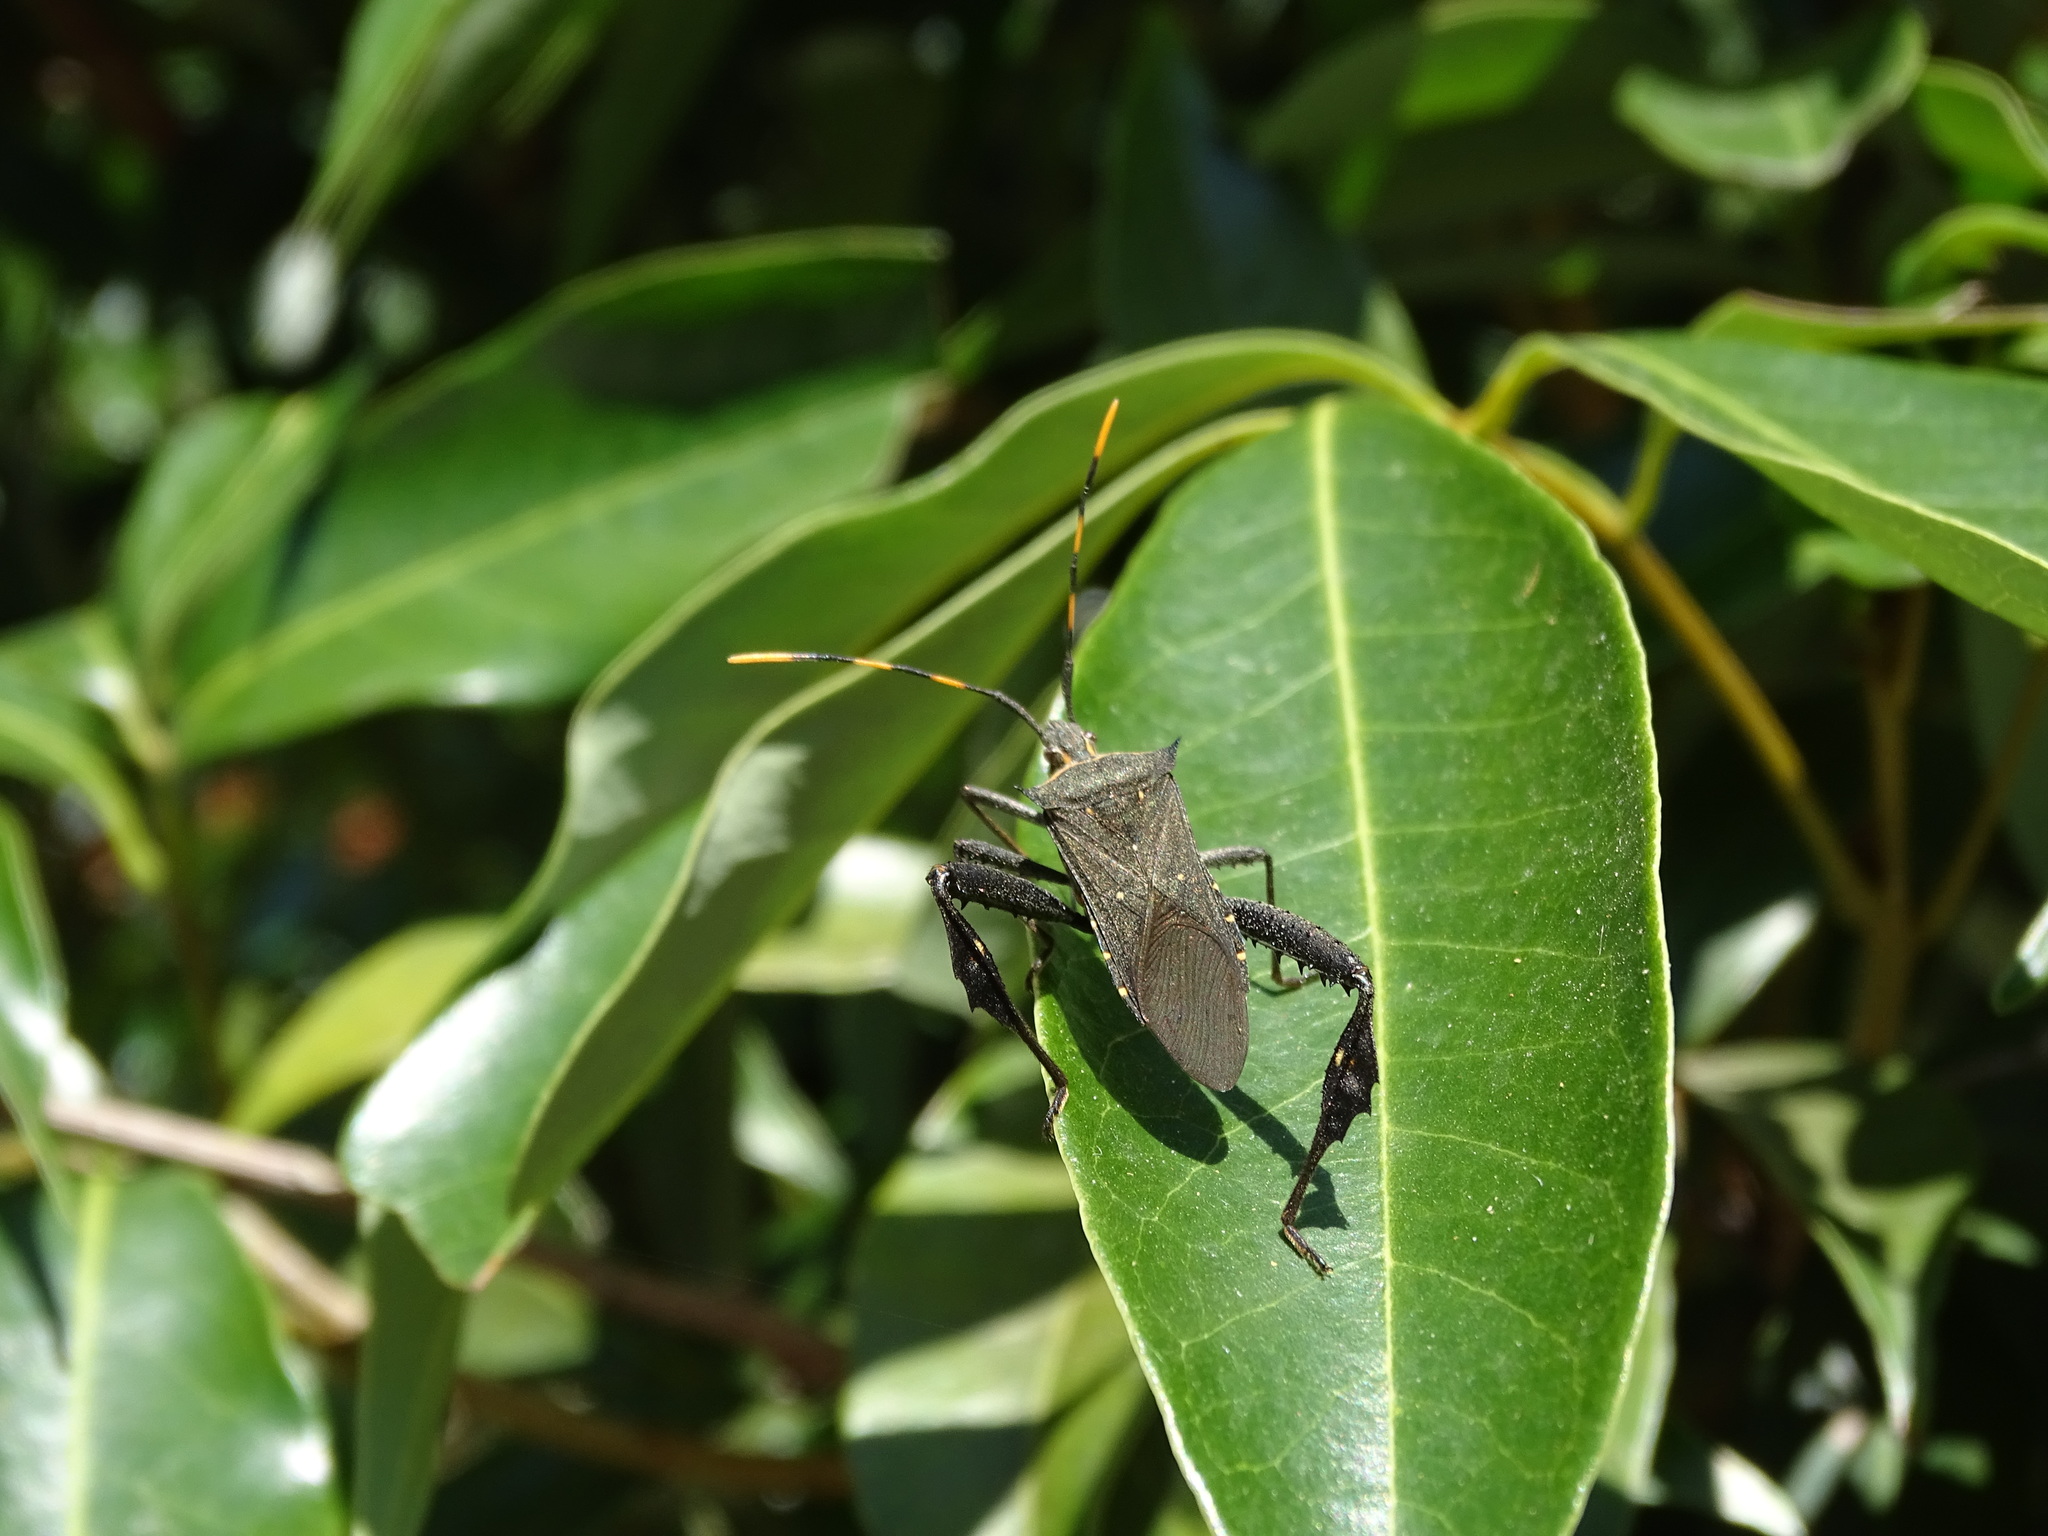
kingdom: Animalia
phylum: Arthropoda
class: Insecta
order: Hemiptera
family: Coreidae
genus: Leptoglossus
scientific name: Leptoglossus gonagra
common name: Citron bug
